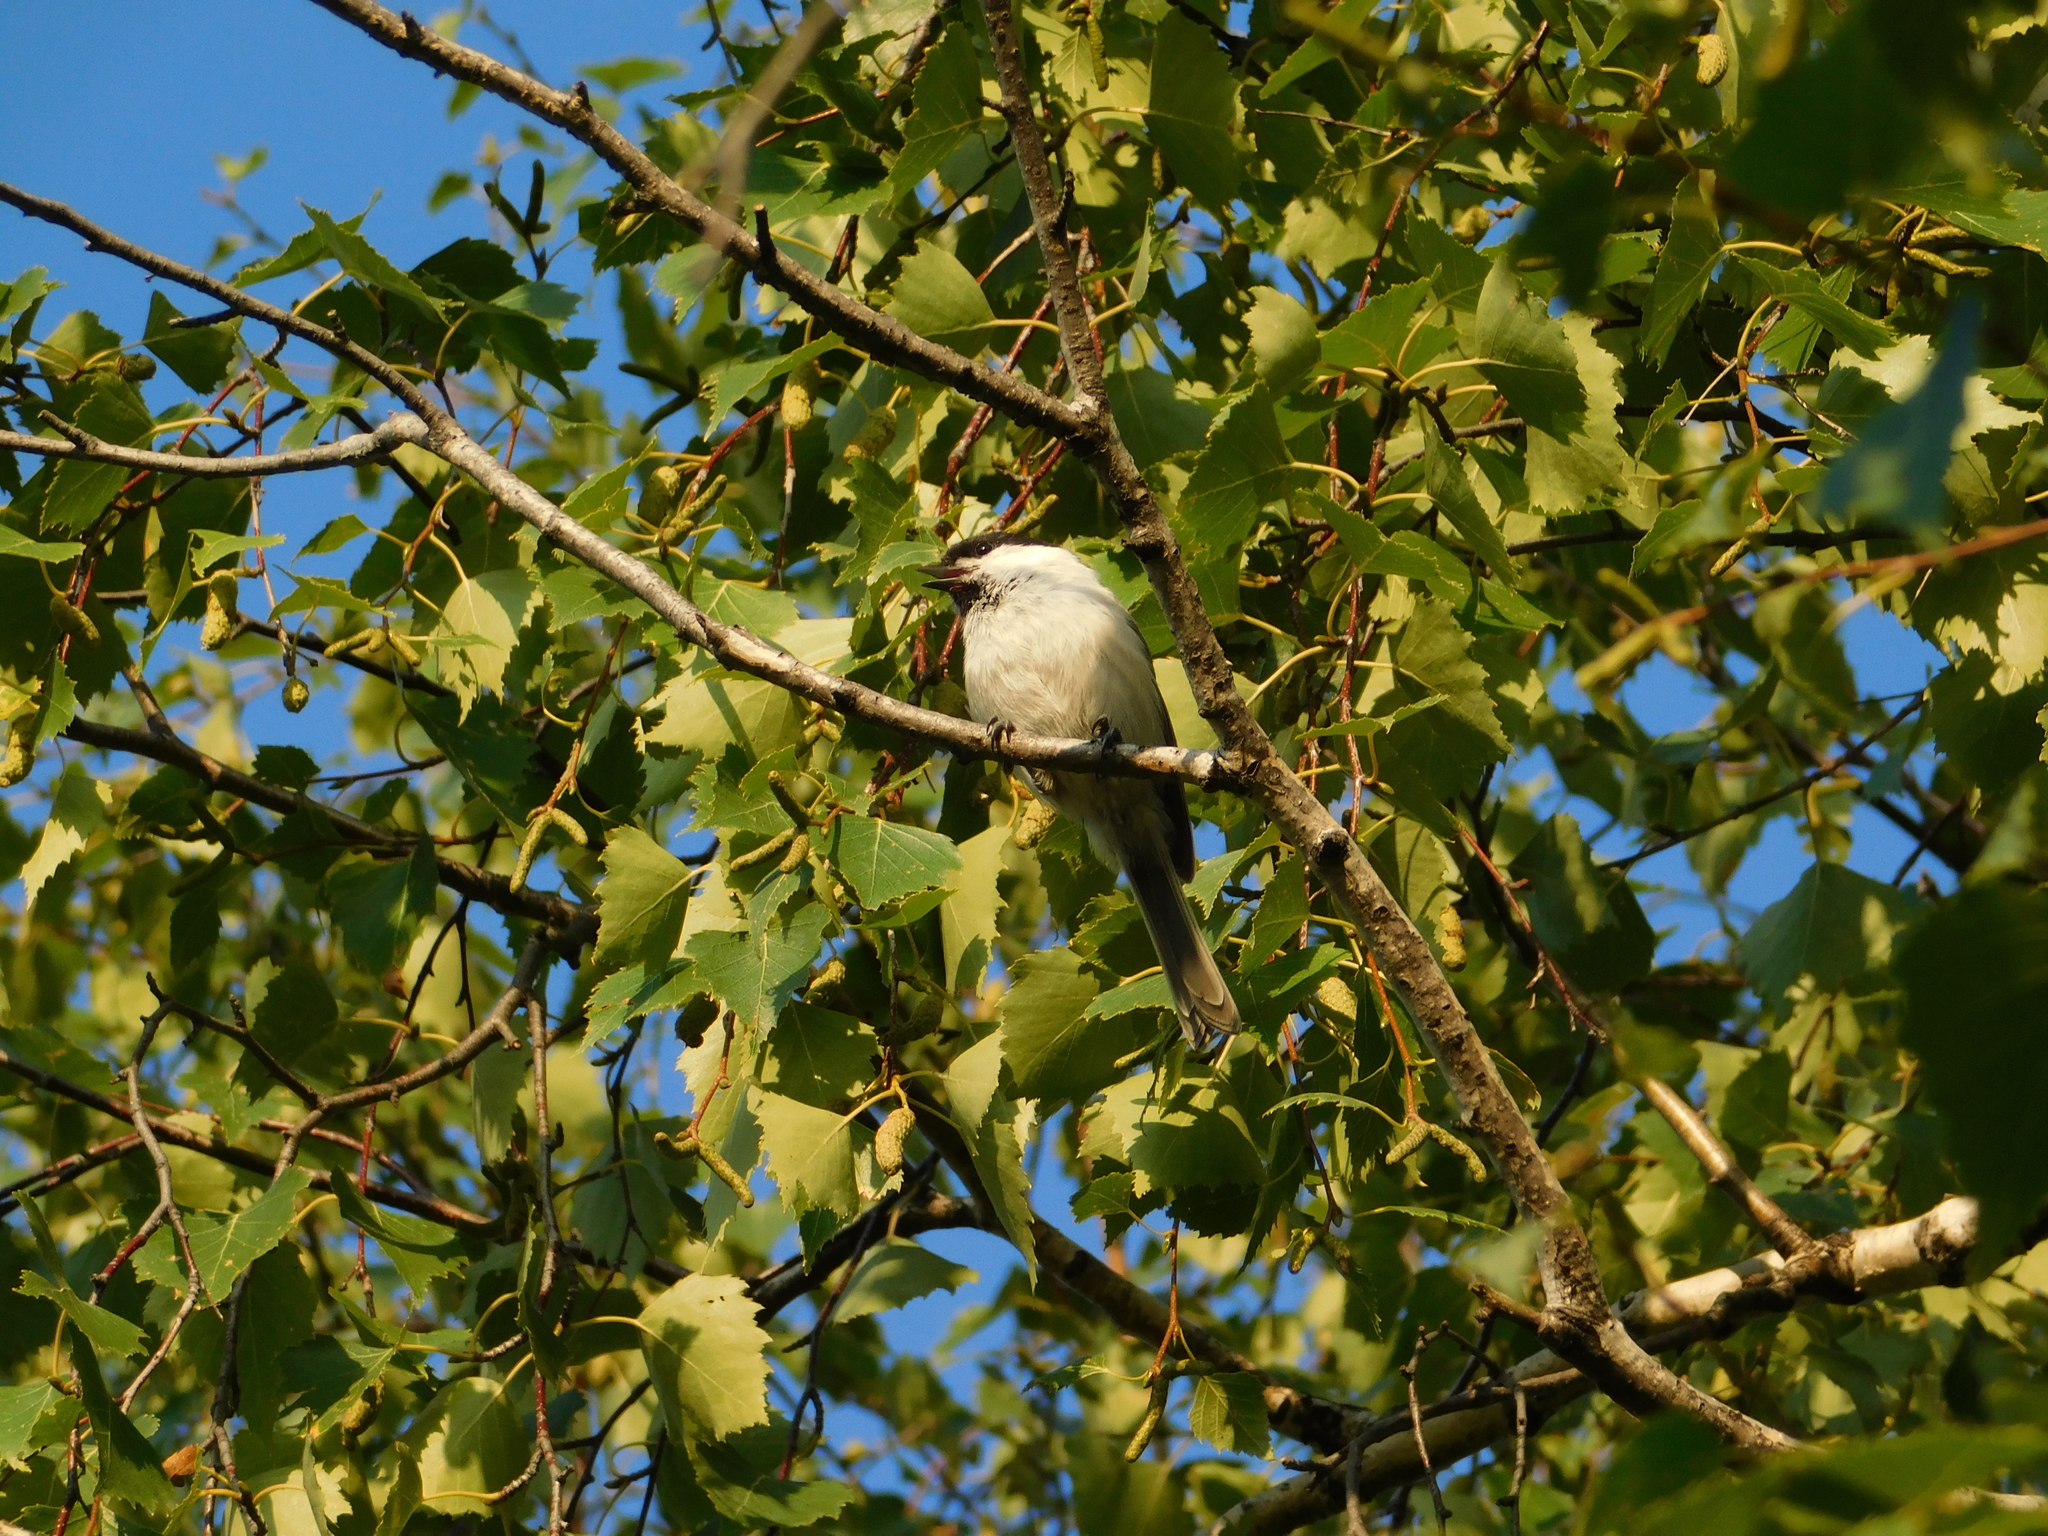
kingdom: Animalia
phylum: Chordata
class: Aves
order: Passeriformes
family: Paridae
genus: Poecile
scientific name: Poecile montanus
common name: Willow tit
